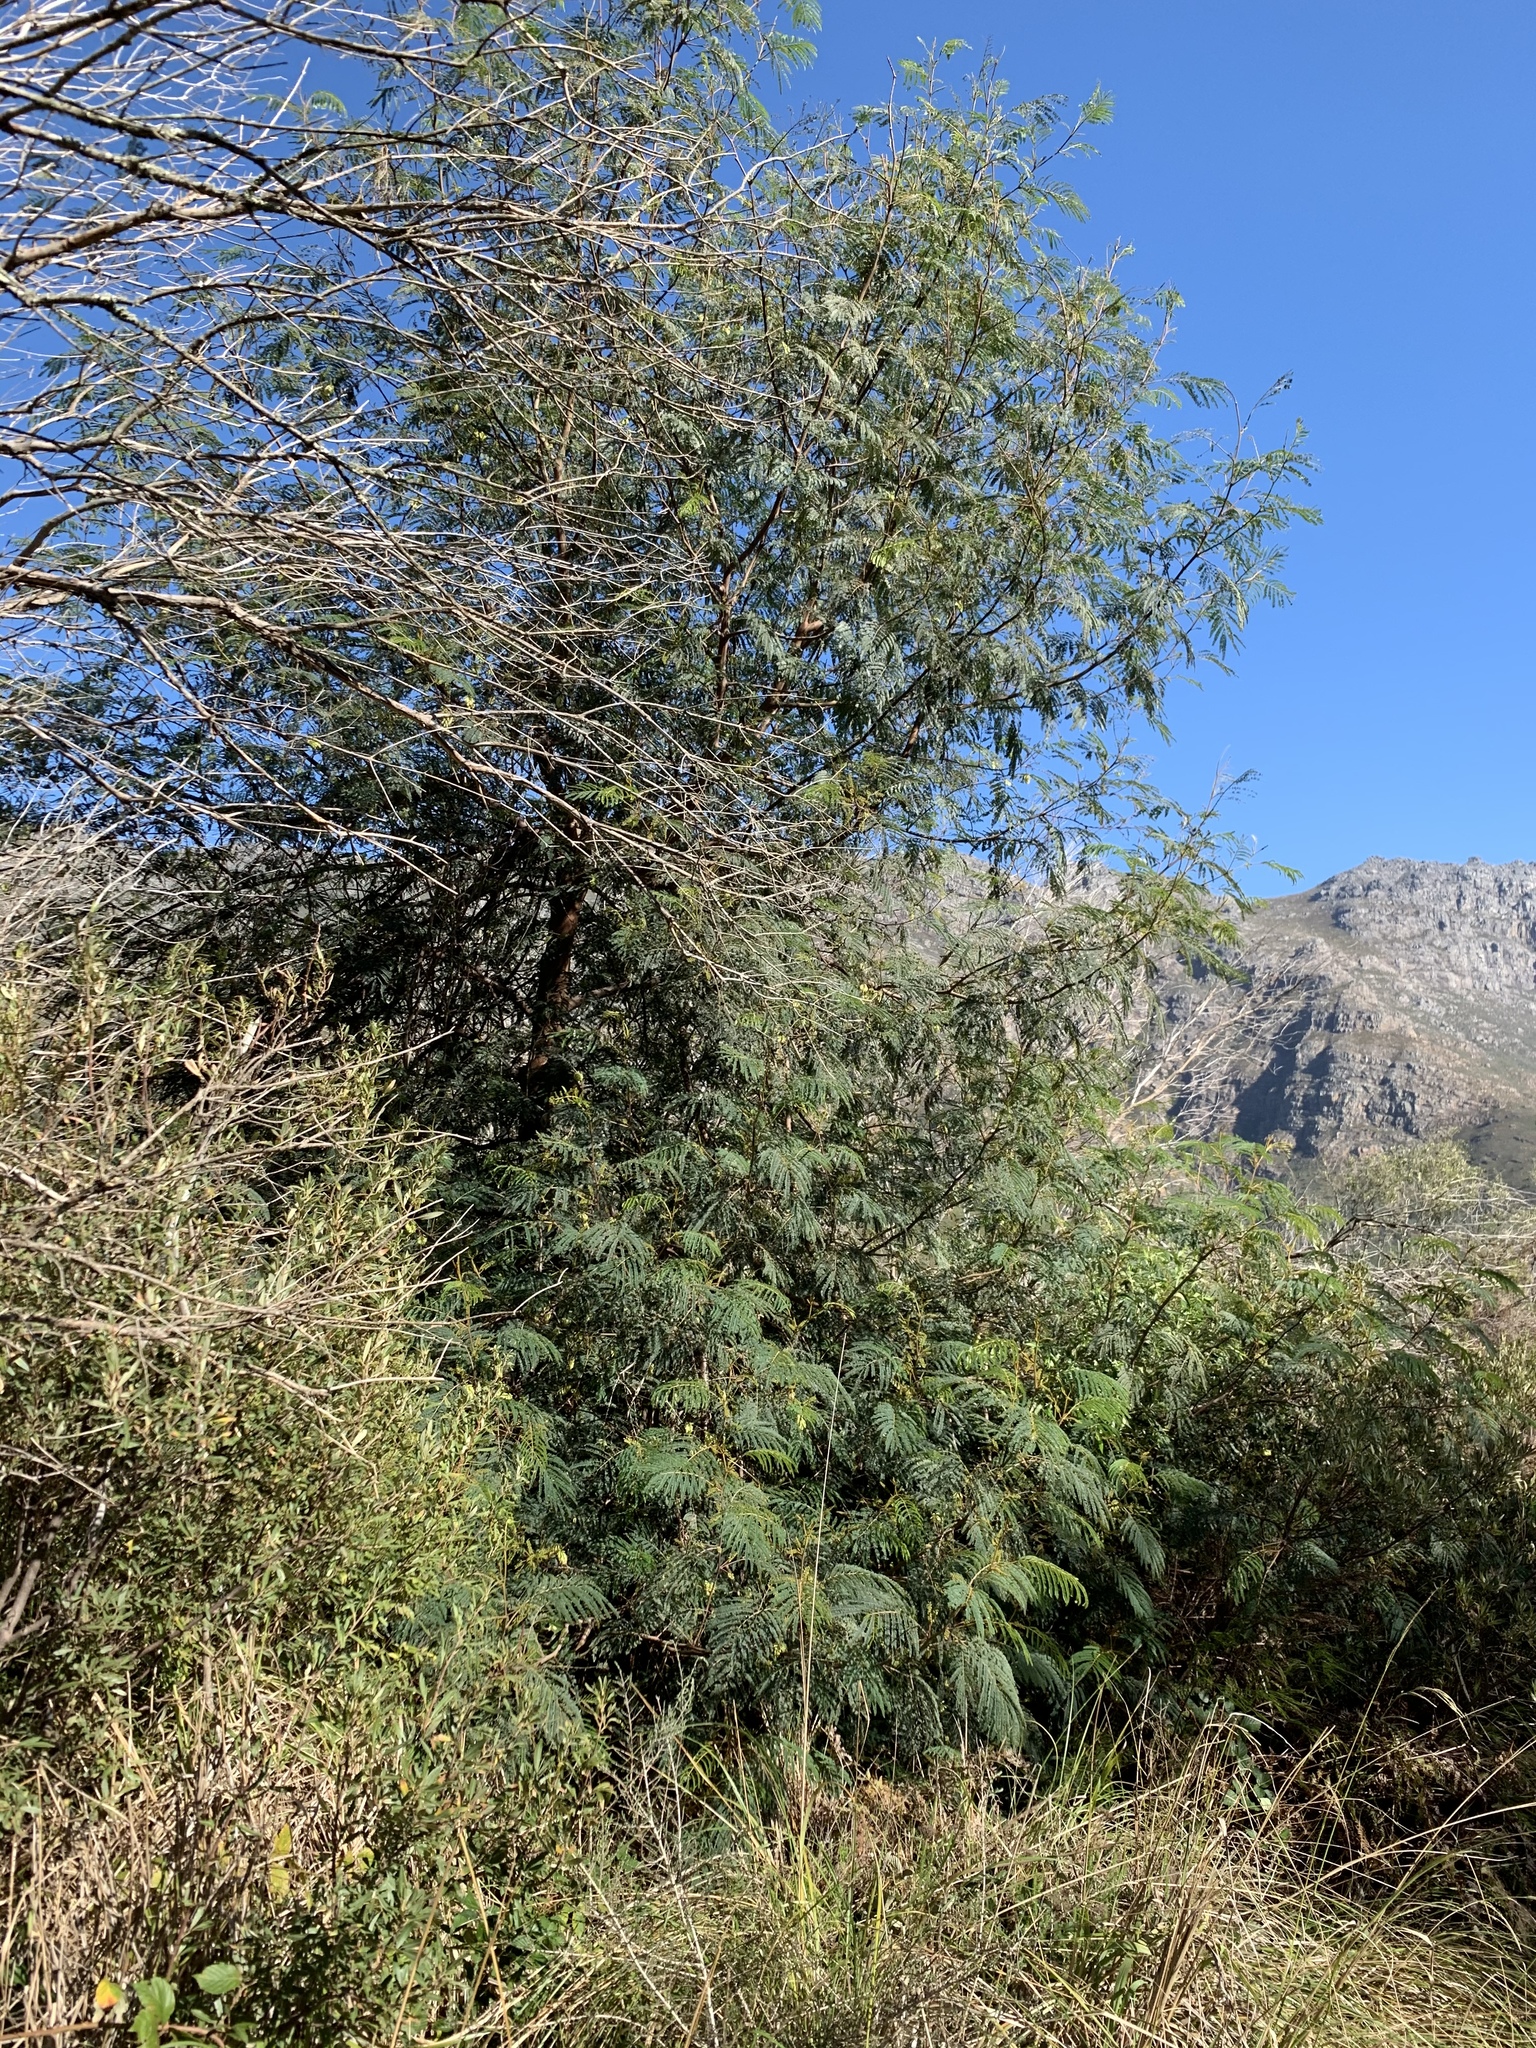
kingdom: Plantae
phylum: Tracheophyta
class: Magnoliopsida
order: Fabales
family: Fabaceae
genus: Paraserianthes
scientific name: Paraserianthes lophantha
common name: Plume albizia
